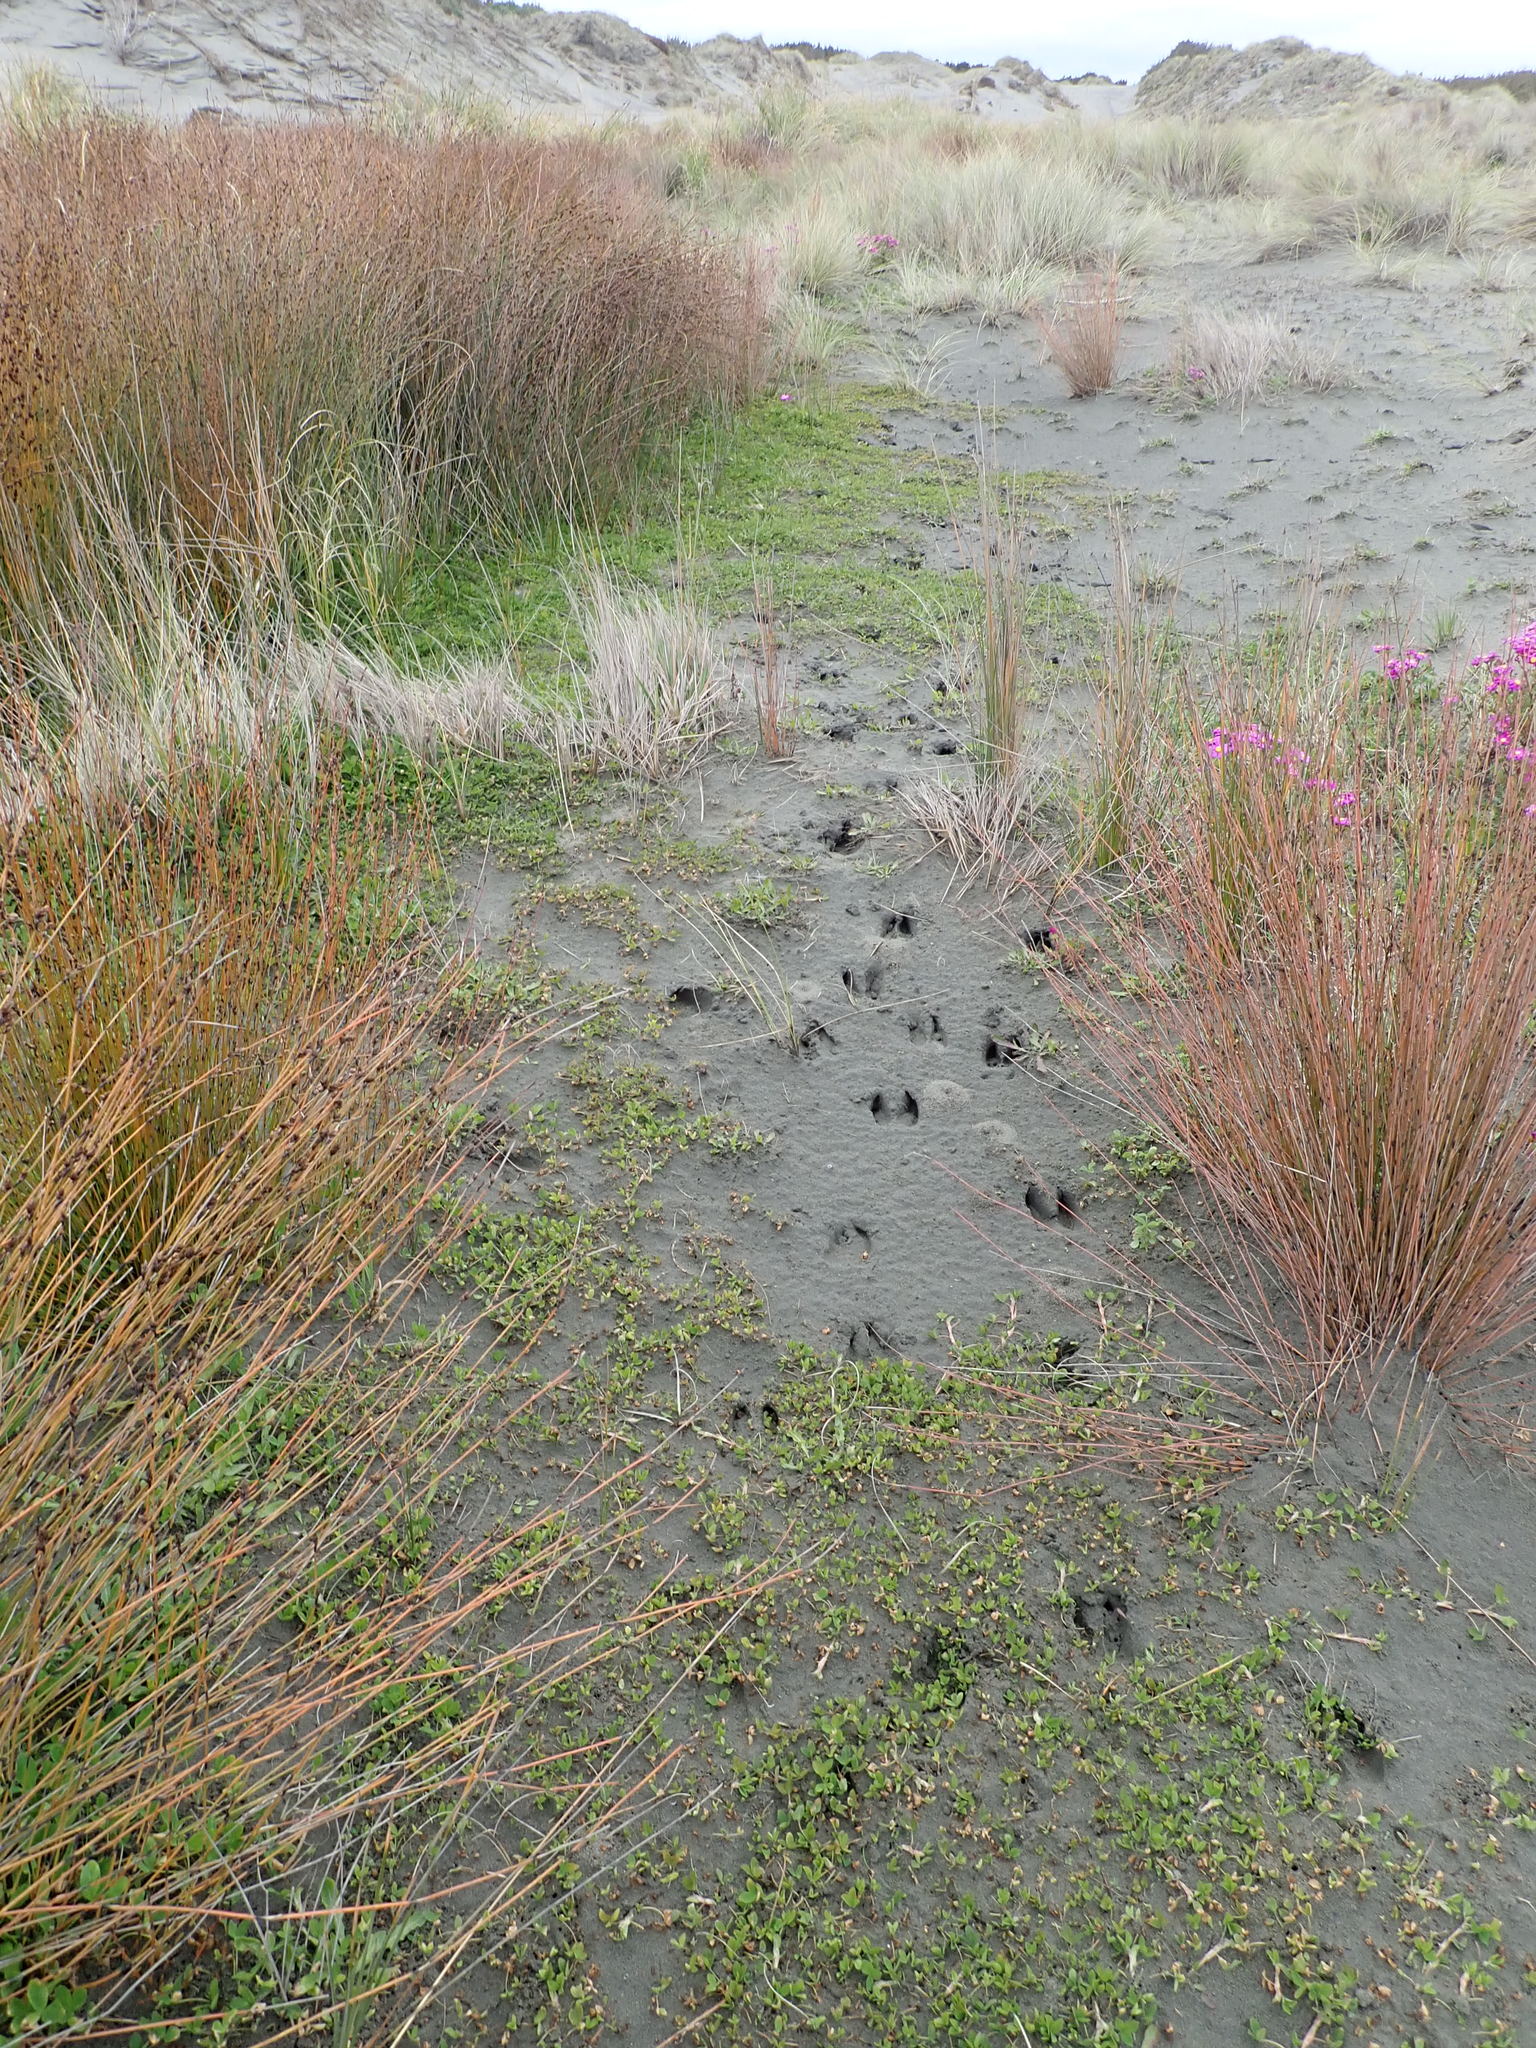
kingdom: Animalia
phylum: Chordata
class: Mammalia
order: Artiodactyla
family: Cervidae
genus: Rusa
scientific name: Rusa unicolor
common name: Sambar
